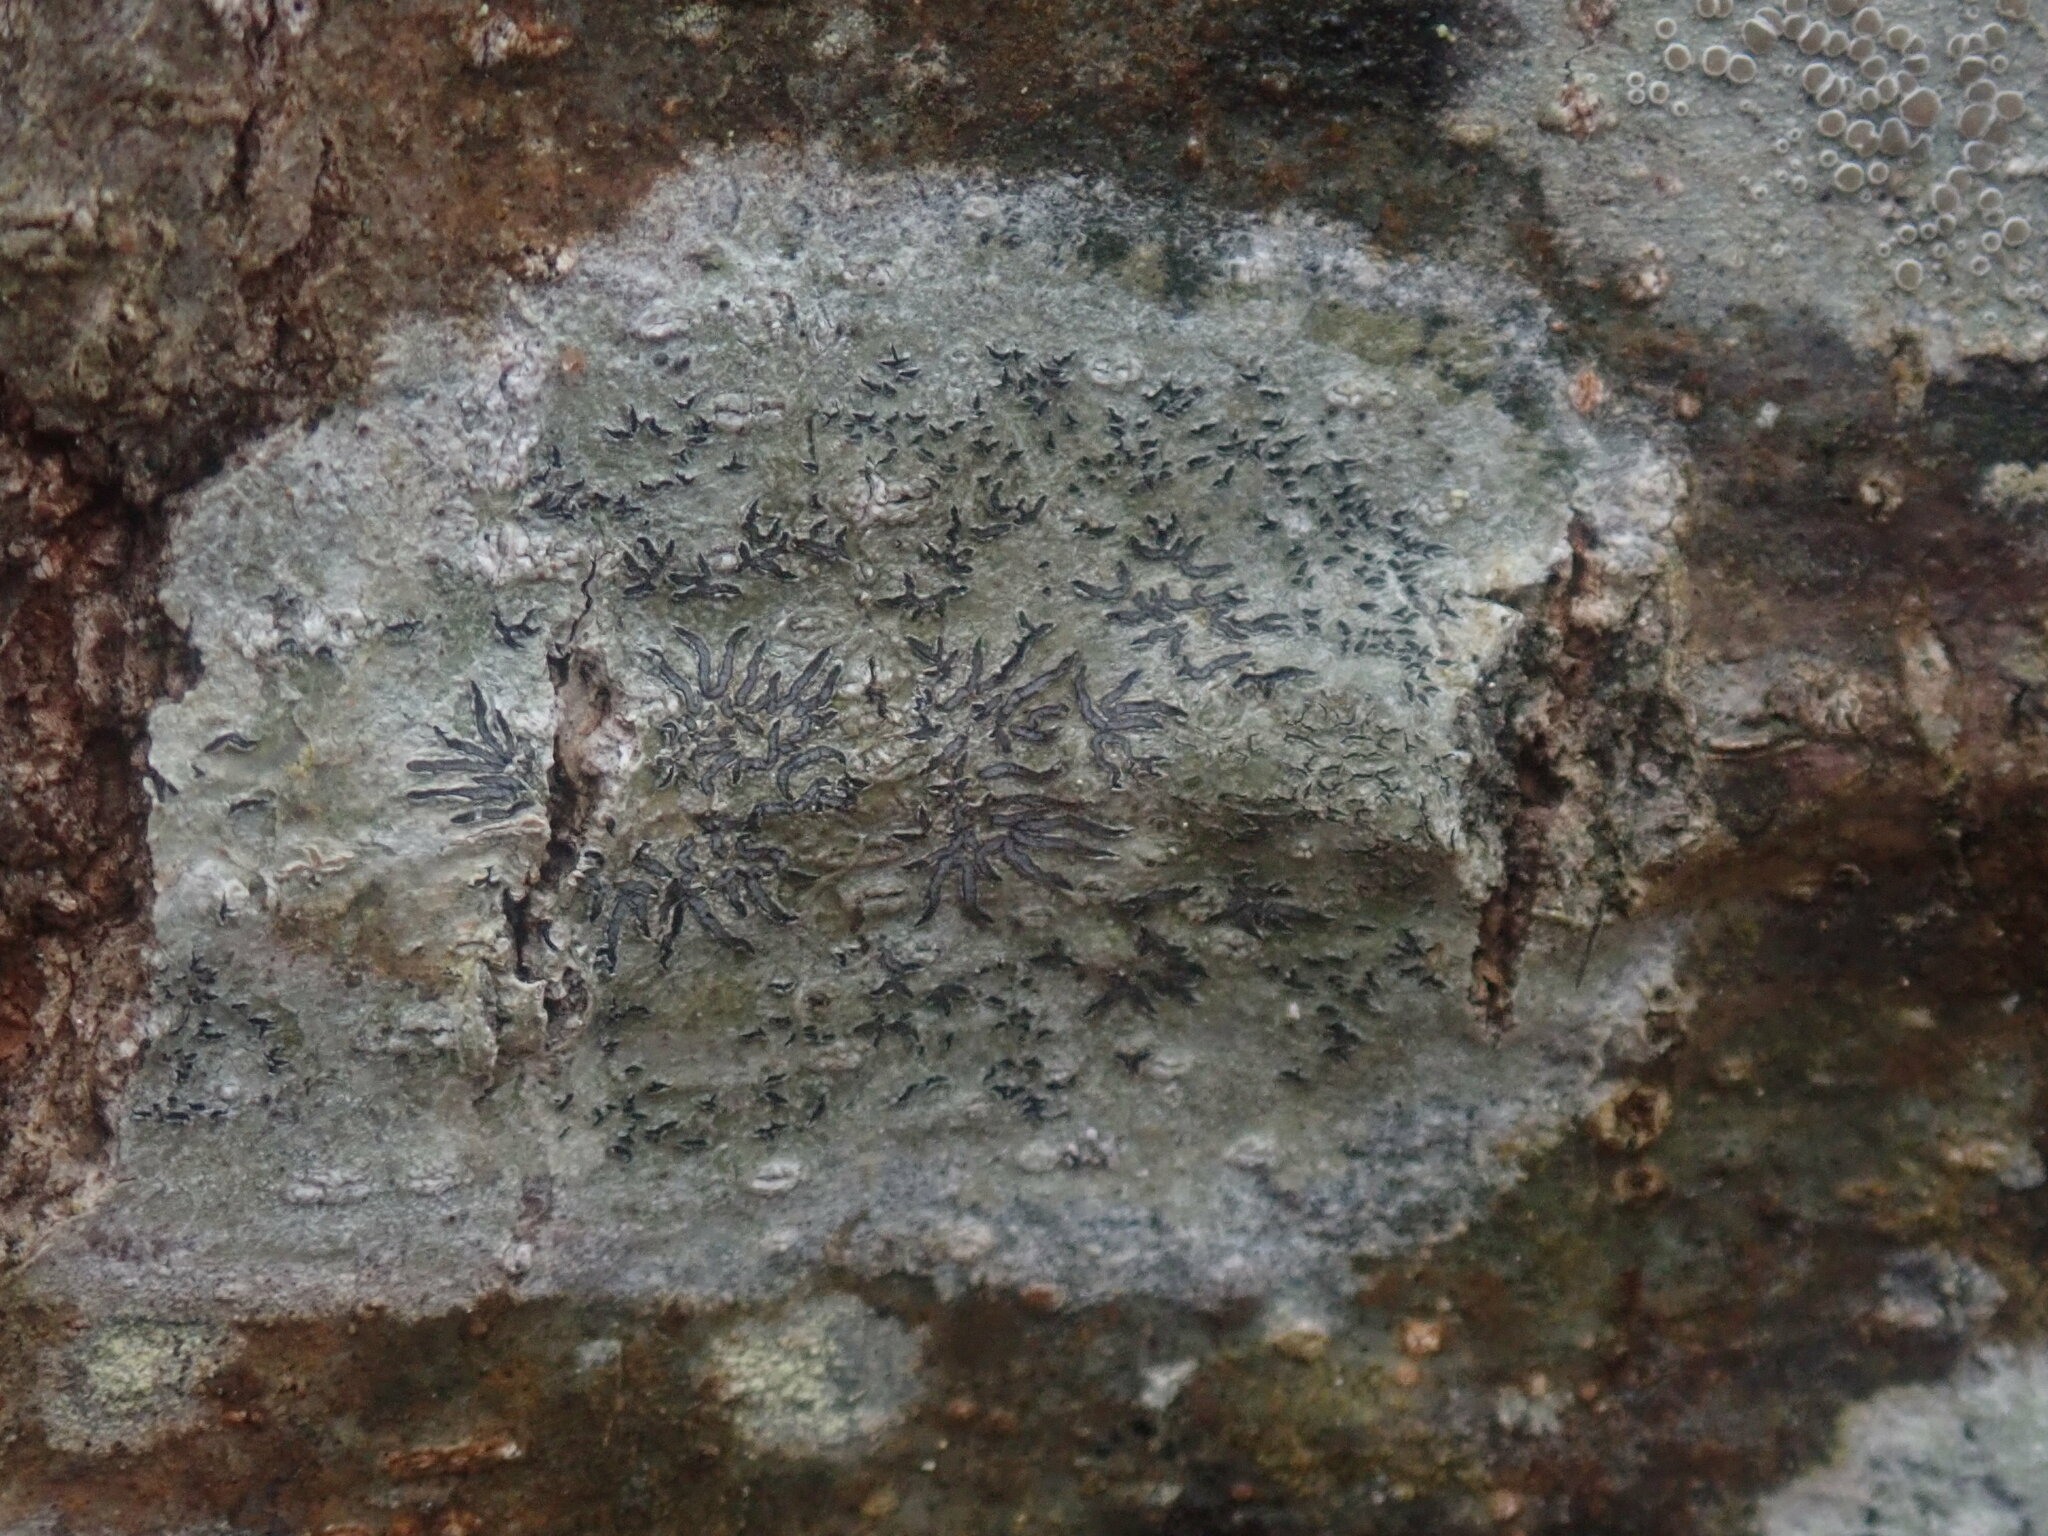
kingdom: Fungi
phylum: Ascomycota
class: Lecanoromycetes
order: Ostropales
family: Graphidaceae
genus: Graphis
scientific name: Graphis scripta
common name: Script lichen
